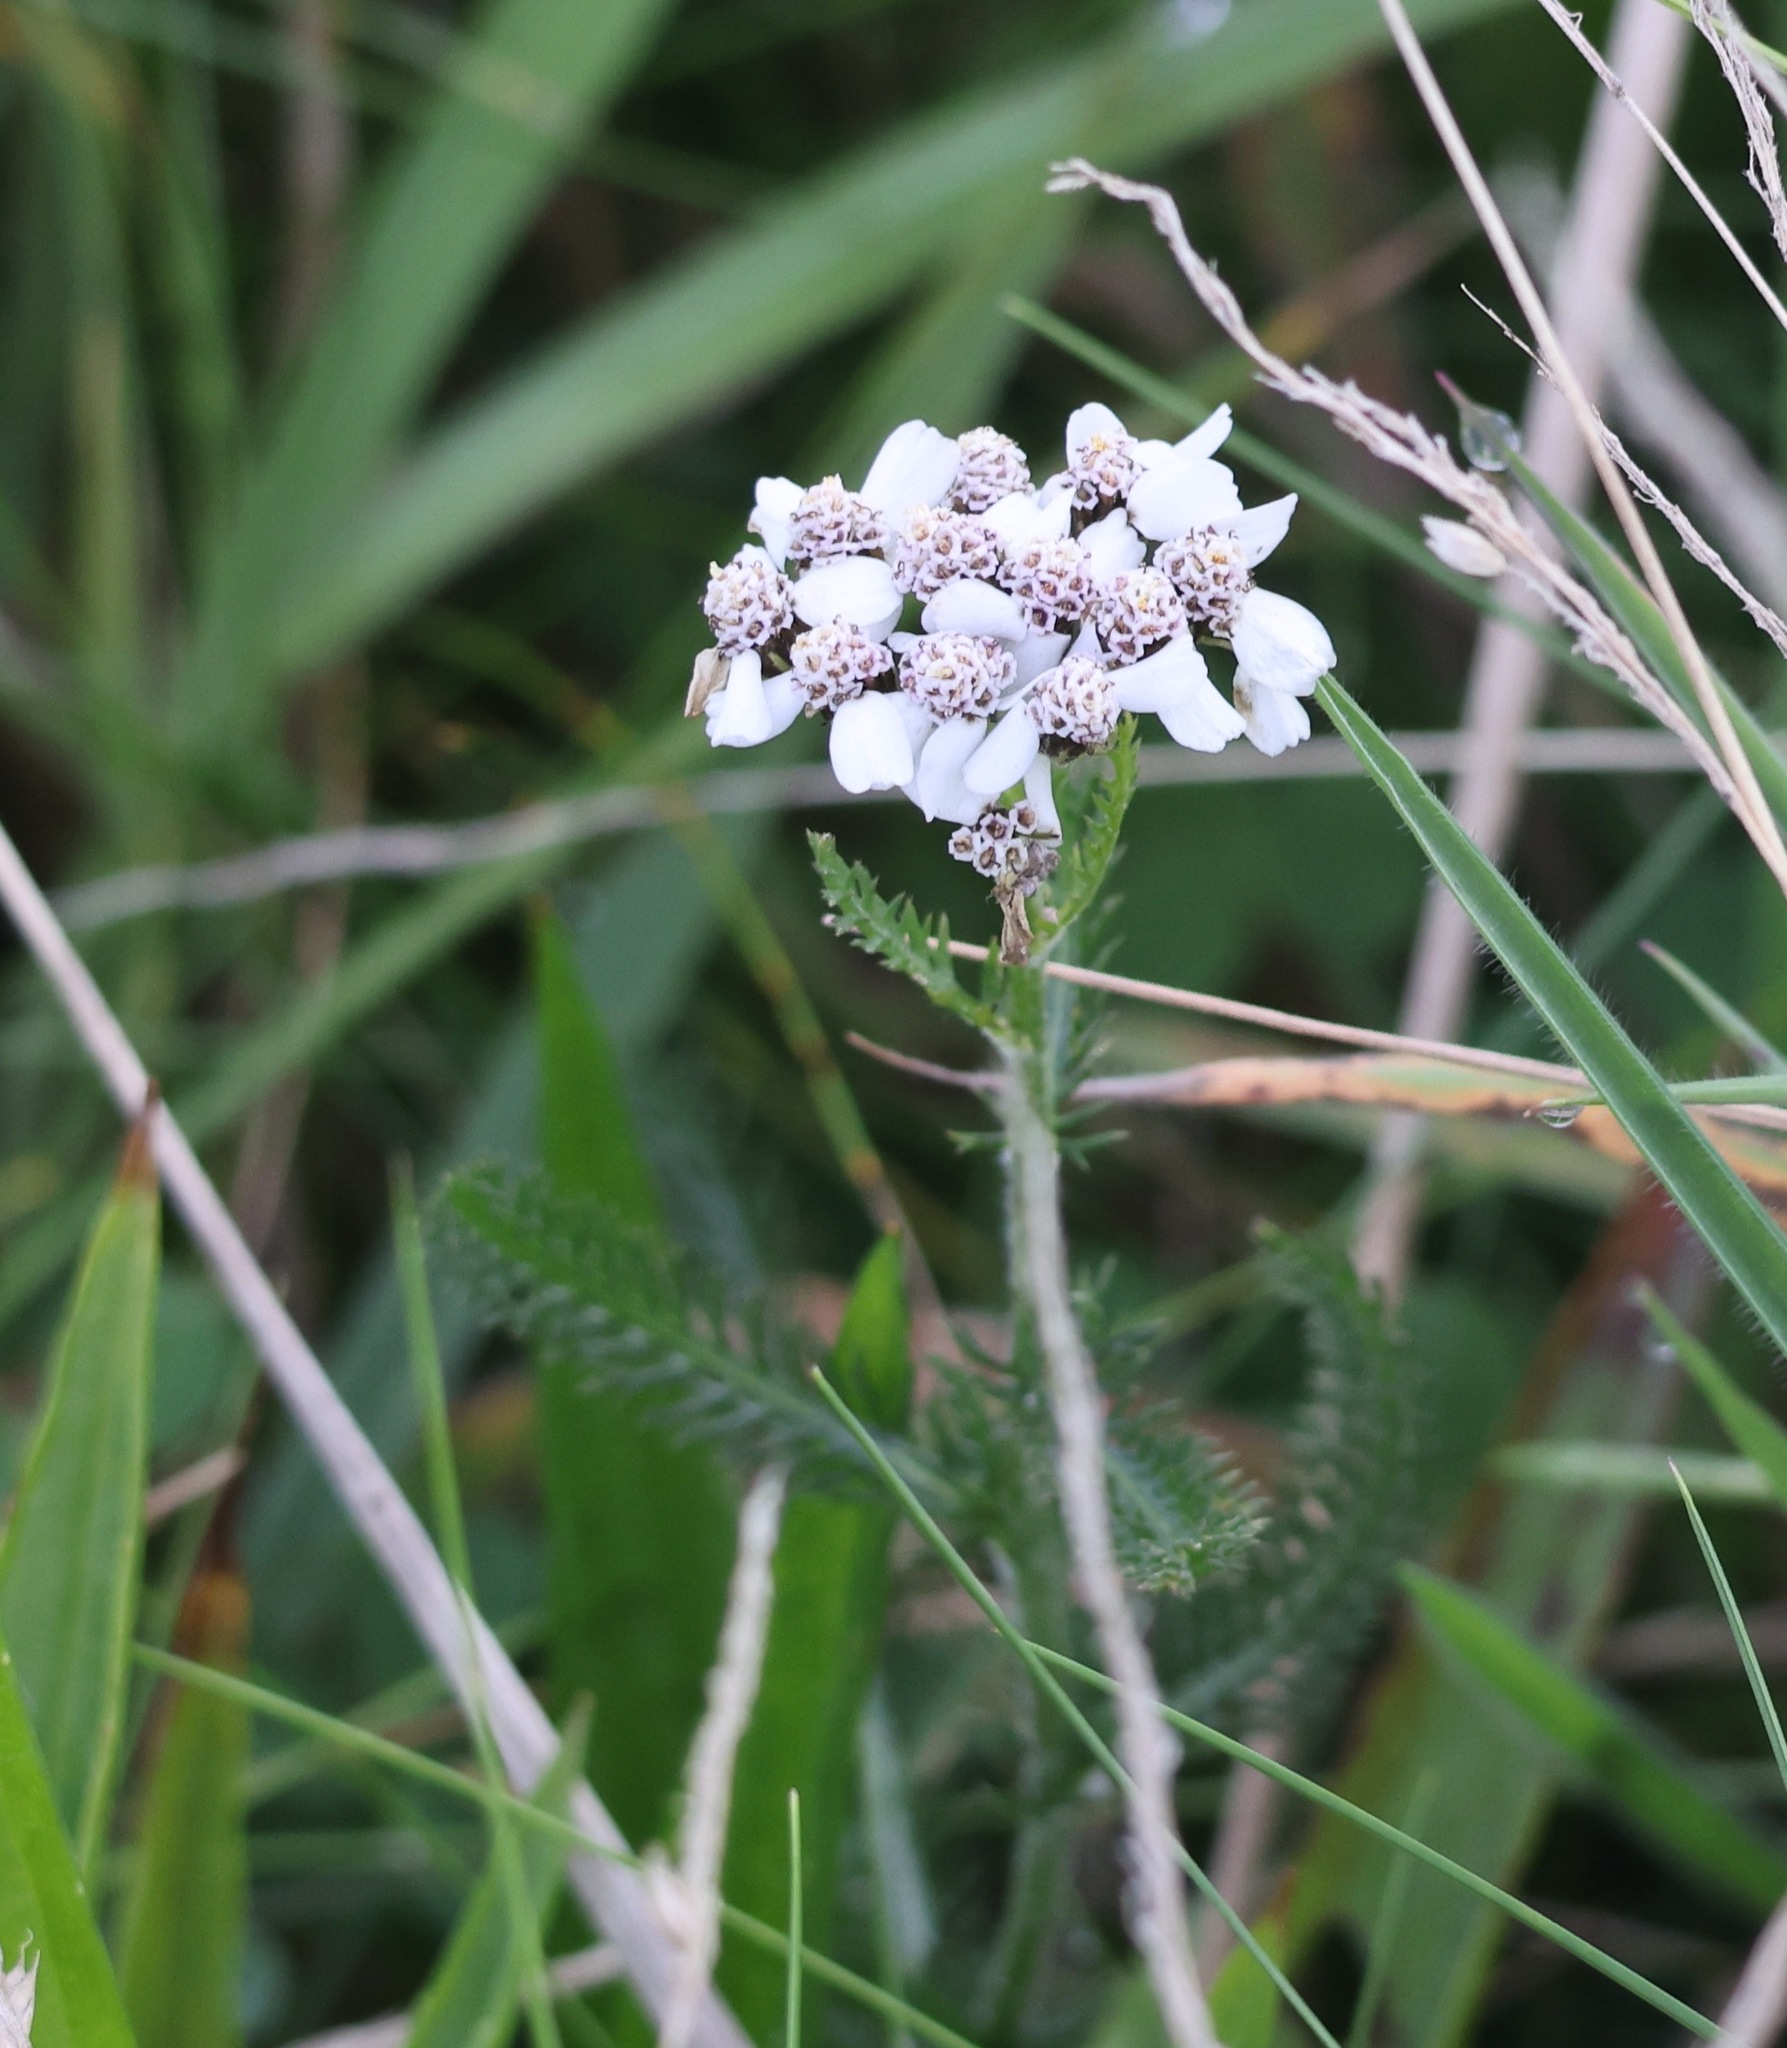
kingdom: Plantae
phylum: Tracheophyta
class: Magnoliopsida
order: Asterales
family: Asteraceae
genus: Achillea
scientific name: Achillea millefolium
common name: Yarrow
